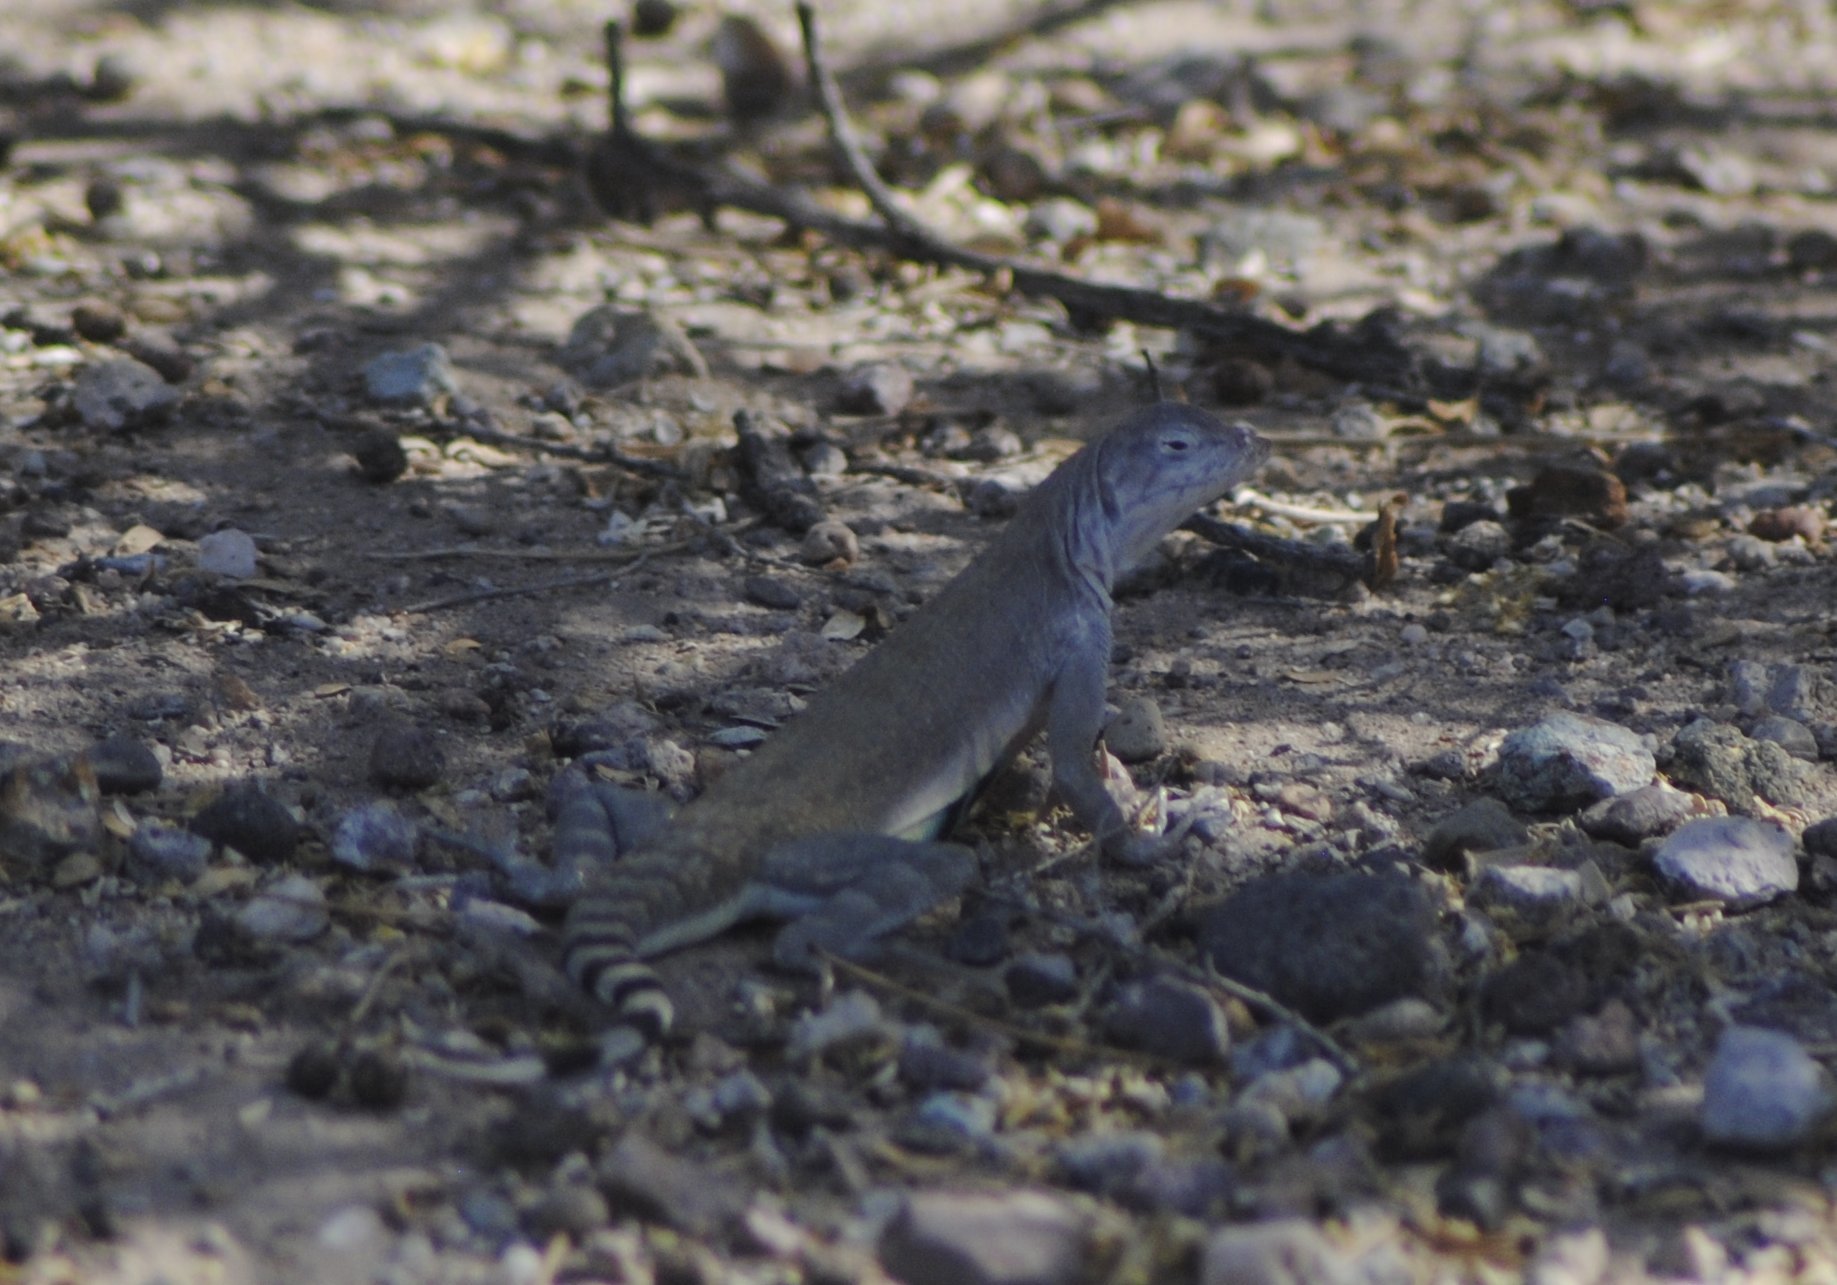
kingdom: Animalia
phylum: Chordata
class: Squamata
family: Phrynosomatidae
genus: Callisaurus
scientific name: Callisaurus draconoides
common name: Zebra-tailed lizard
